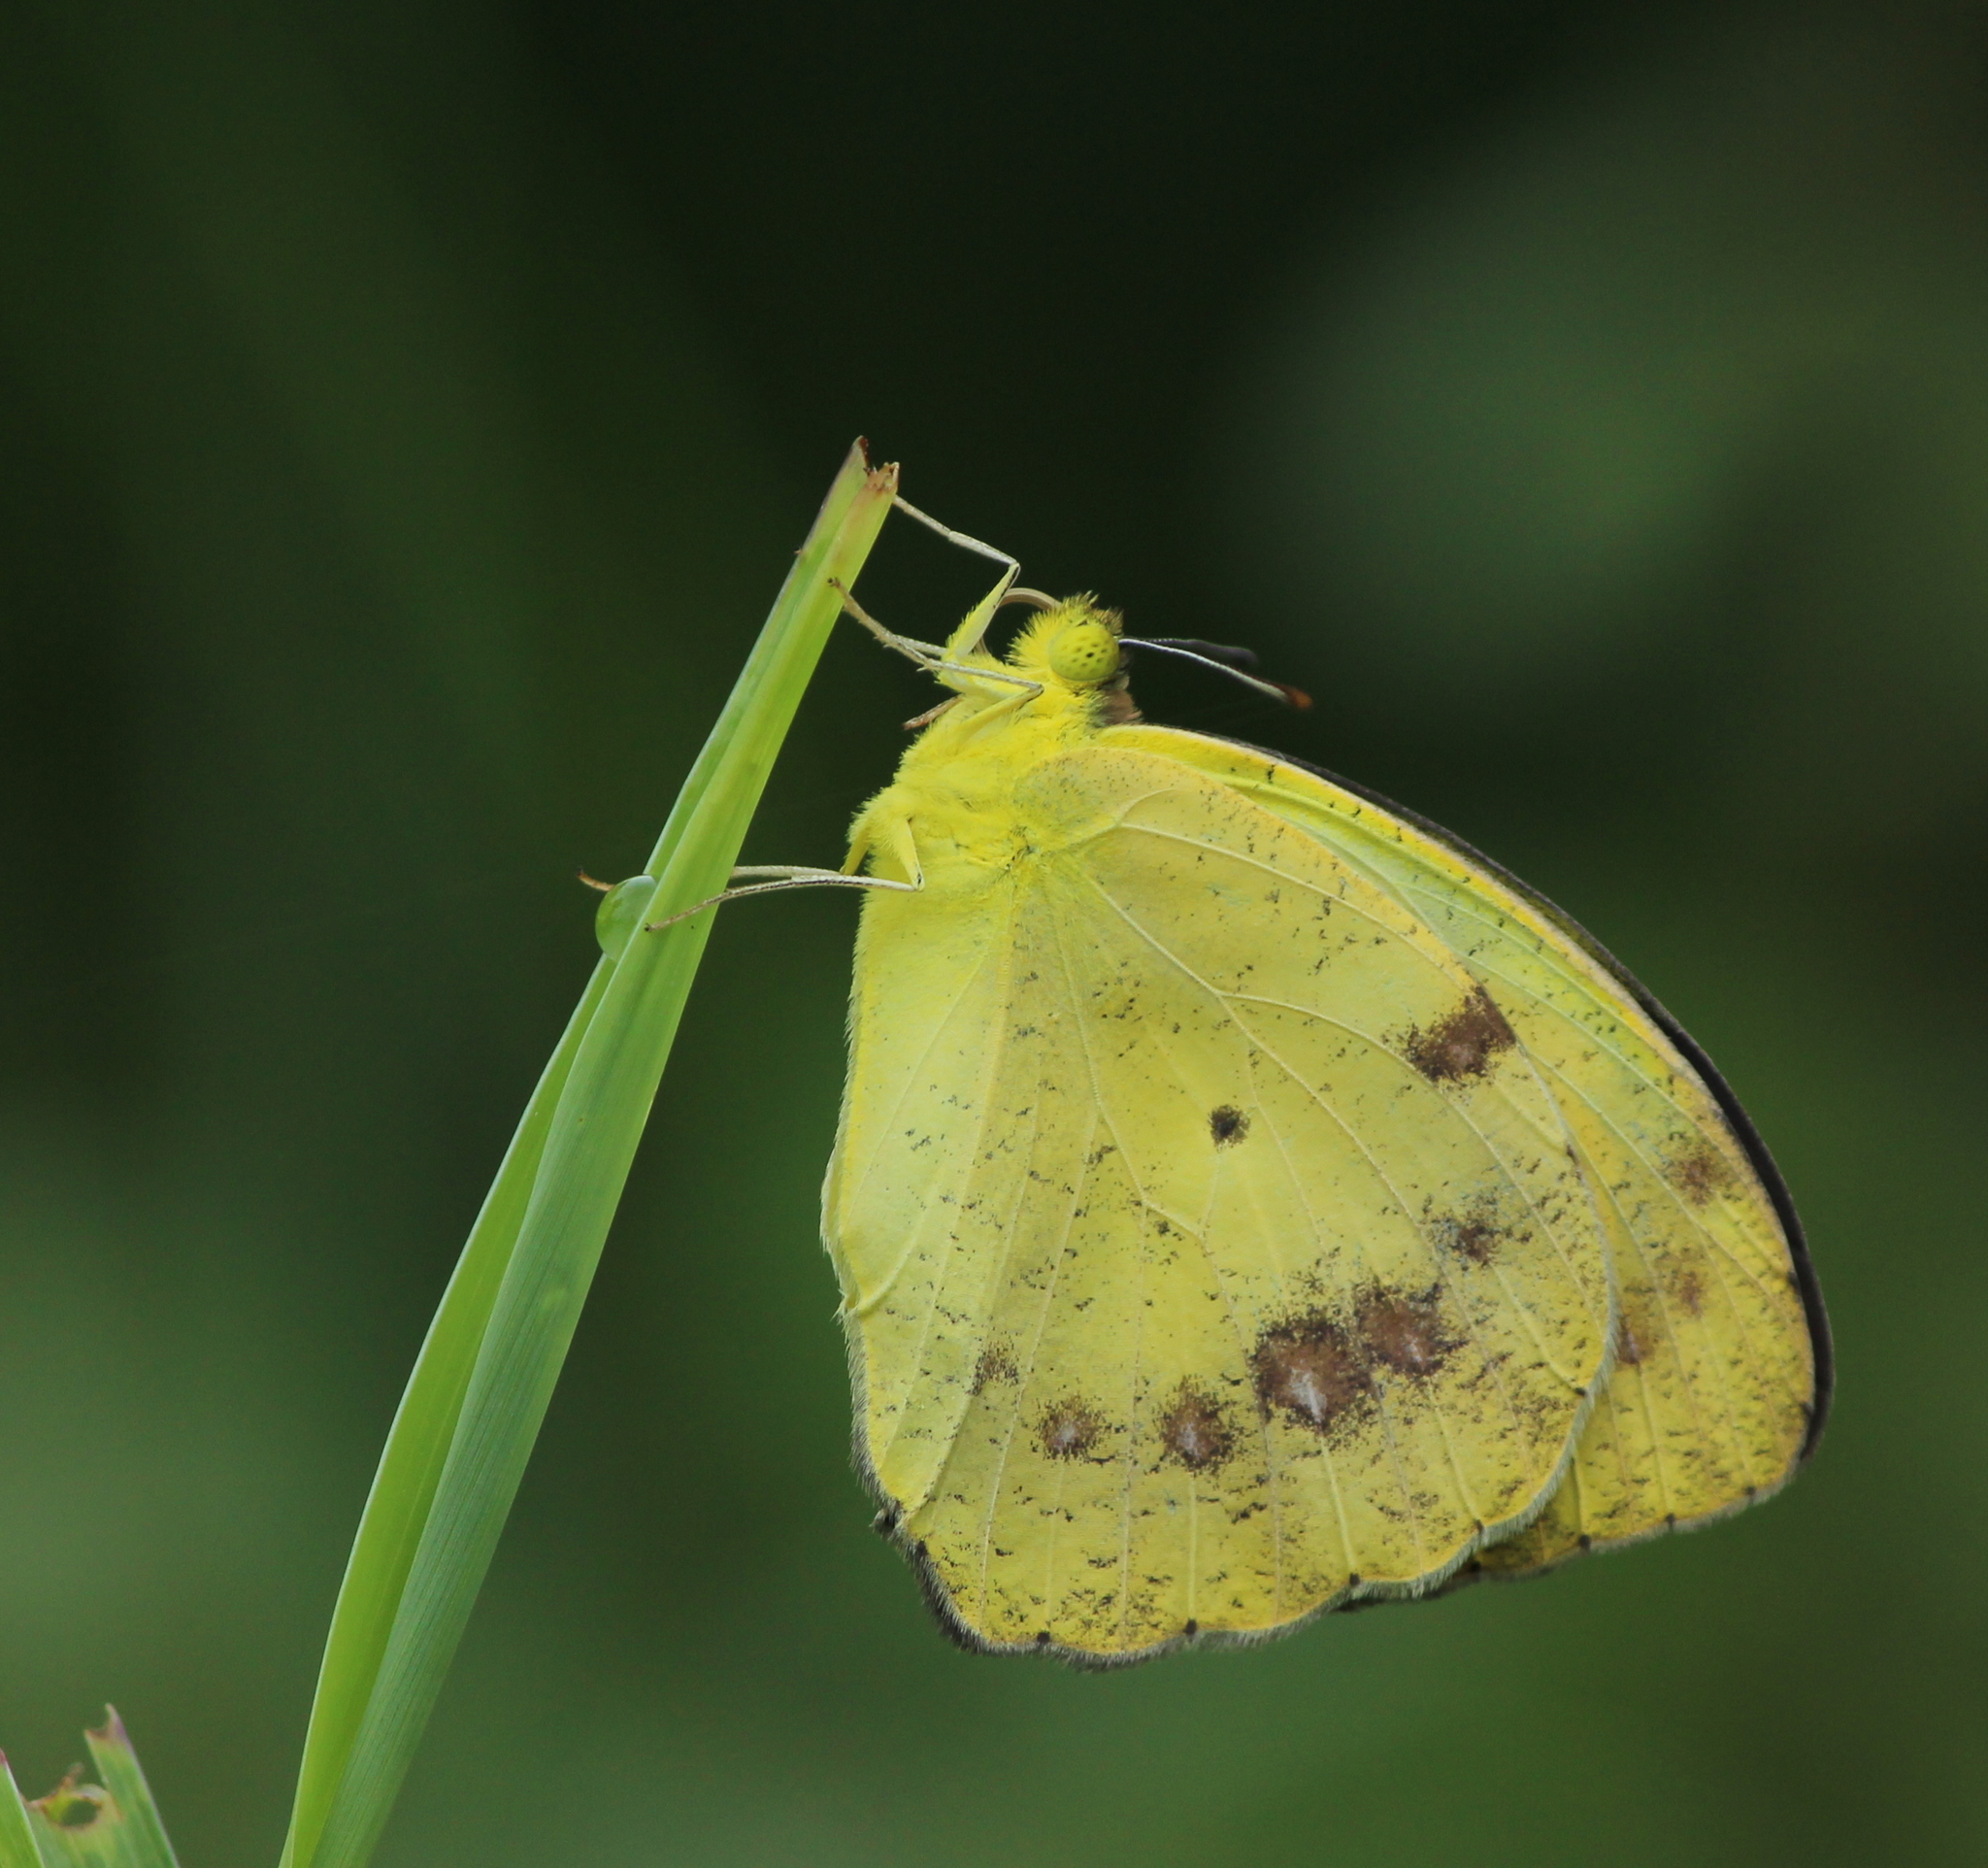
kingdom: Animalia
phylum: Arthropoda
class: Insecta
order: Lepidoptera
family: Pieridae
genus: Ixias
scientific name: Ixias pyrene
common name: Yellow orange tip
